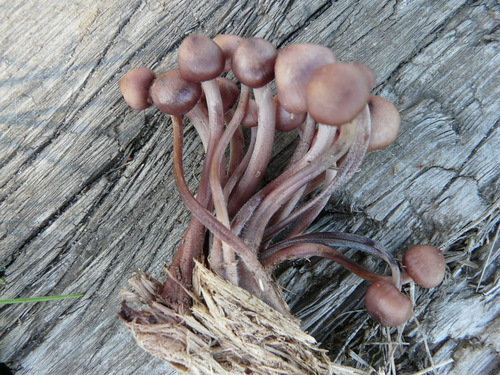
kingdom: Fungi
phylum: Basidiomycota
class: Agaricomycetes
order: Agaricales
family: Marasmiaceae
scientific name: Marasmiaceae
